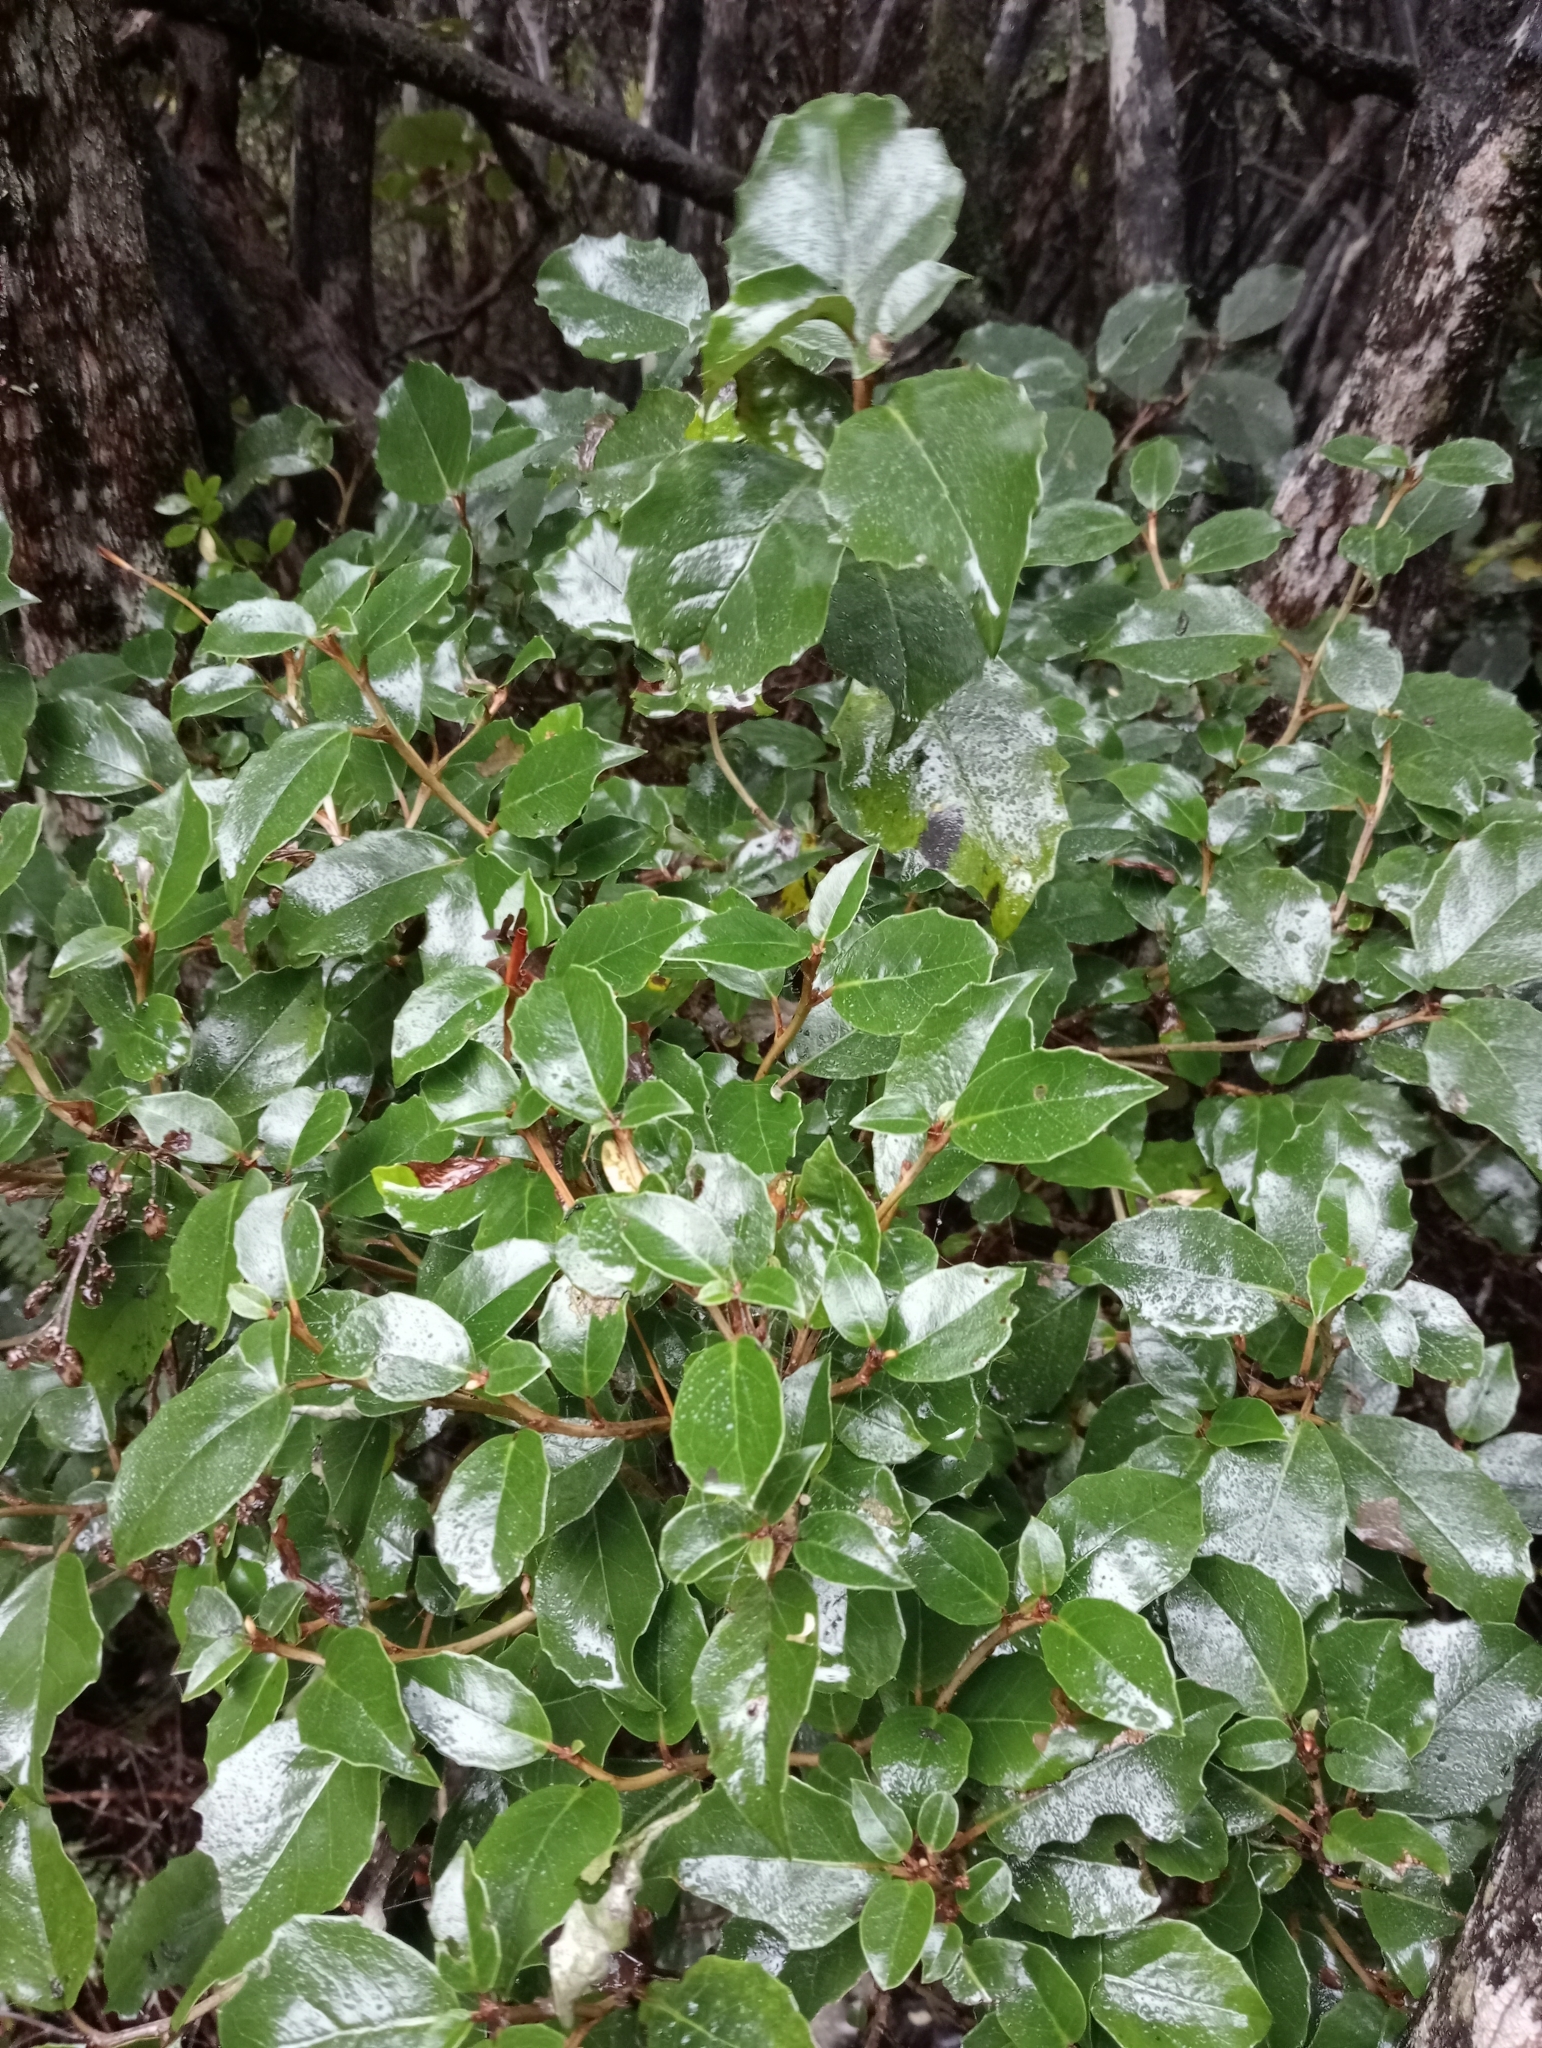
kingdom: Plantae
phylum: Tracheophyta
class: Magnoliopsida
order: Asterales
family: Asteraceae
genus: Olearia
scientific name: Olearia arborescens
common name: Glossy tree daisy
